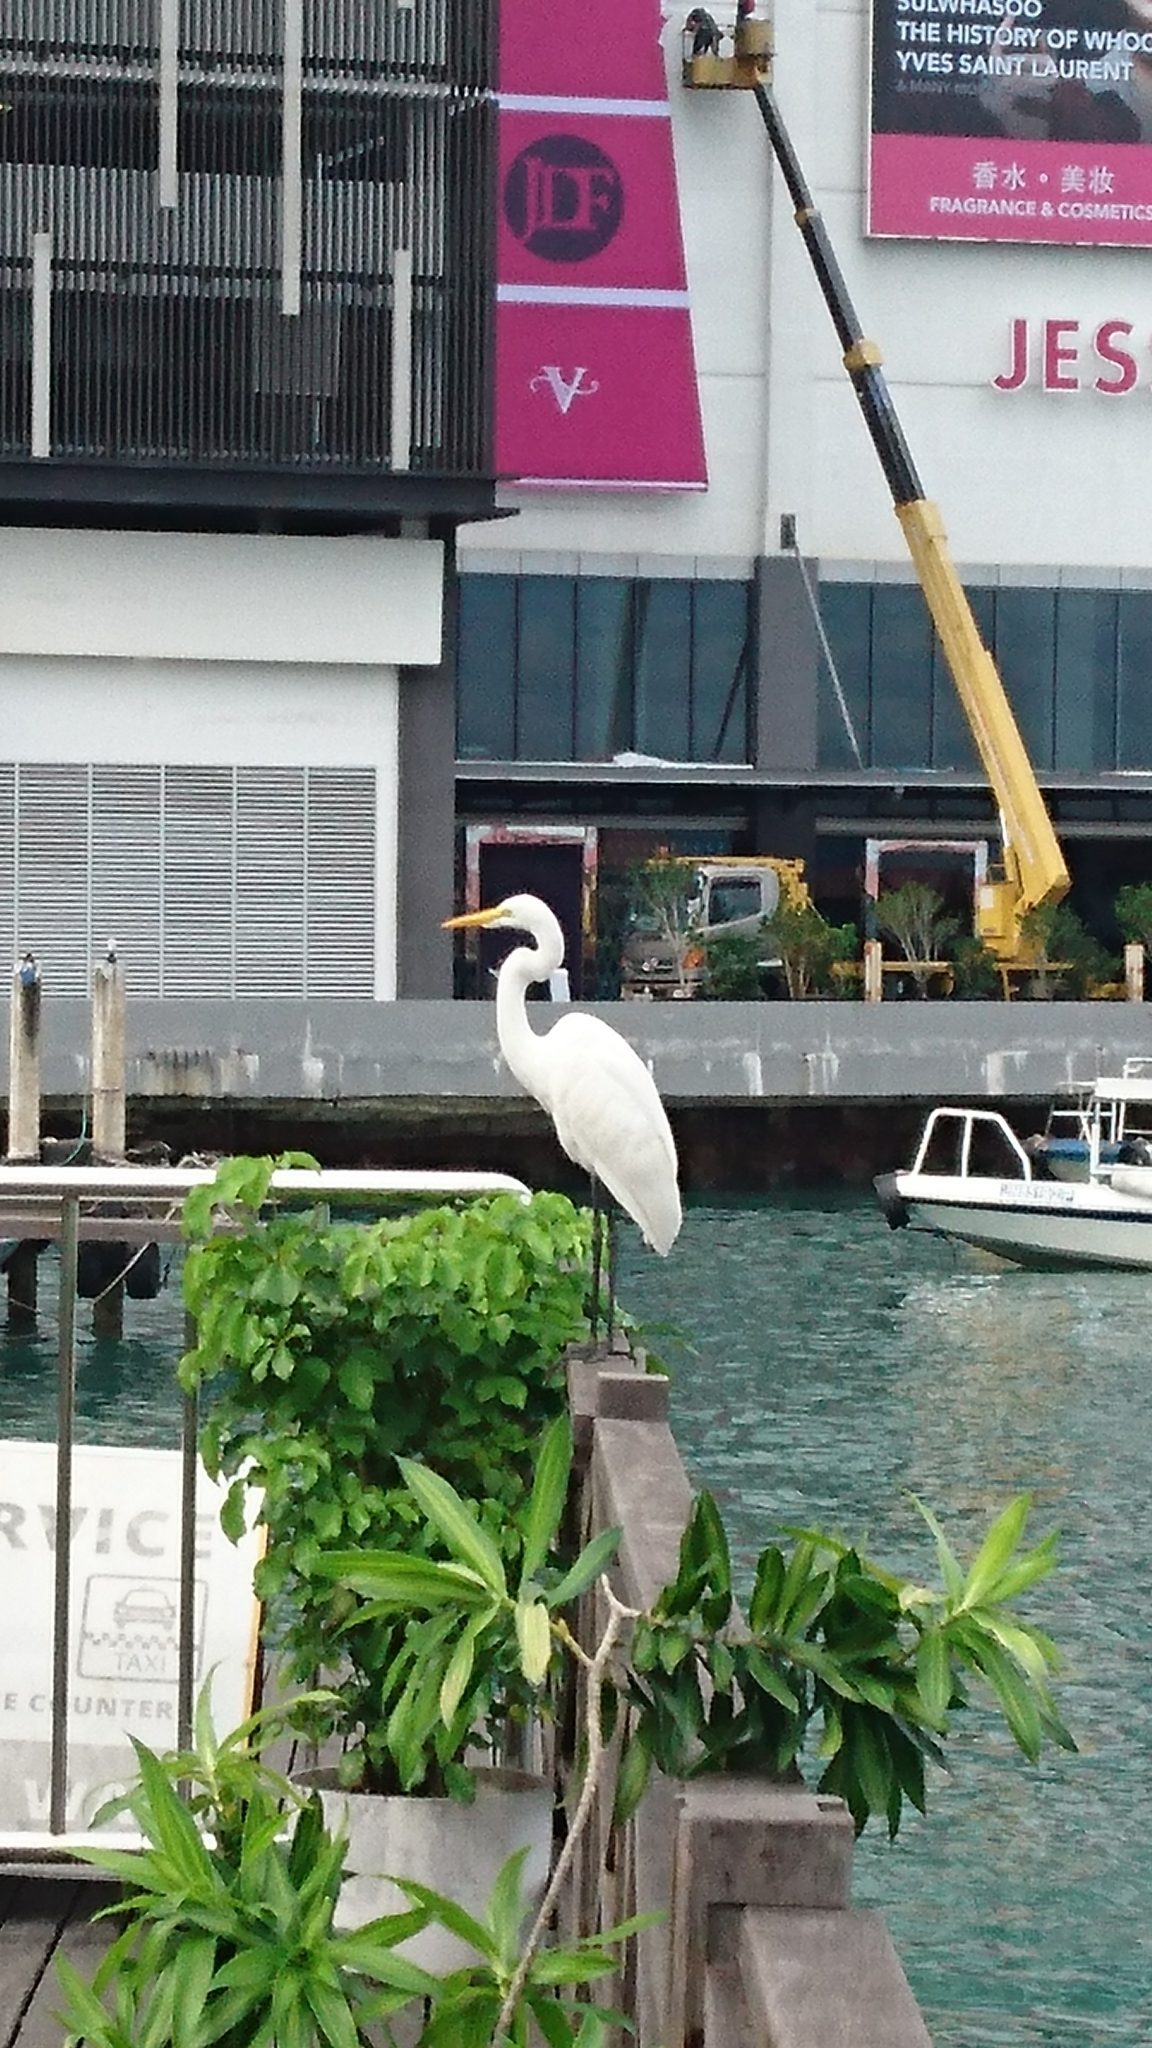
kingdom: Animalia
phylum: Chordata
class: Aves
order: Pelecaniformes
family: Ardeidae
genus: Ardea
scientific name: Ardea alba
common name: Great egret
